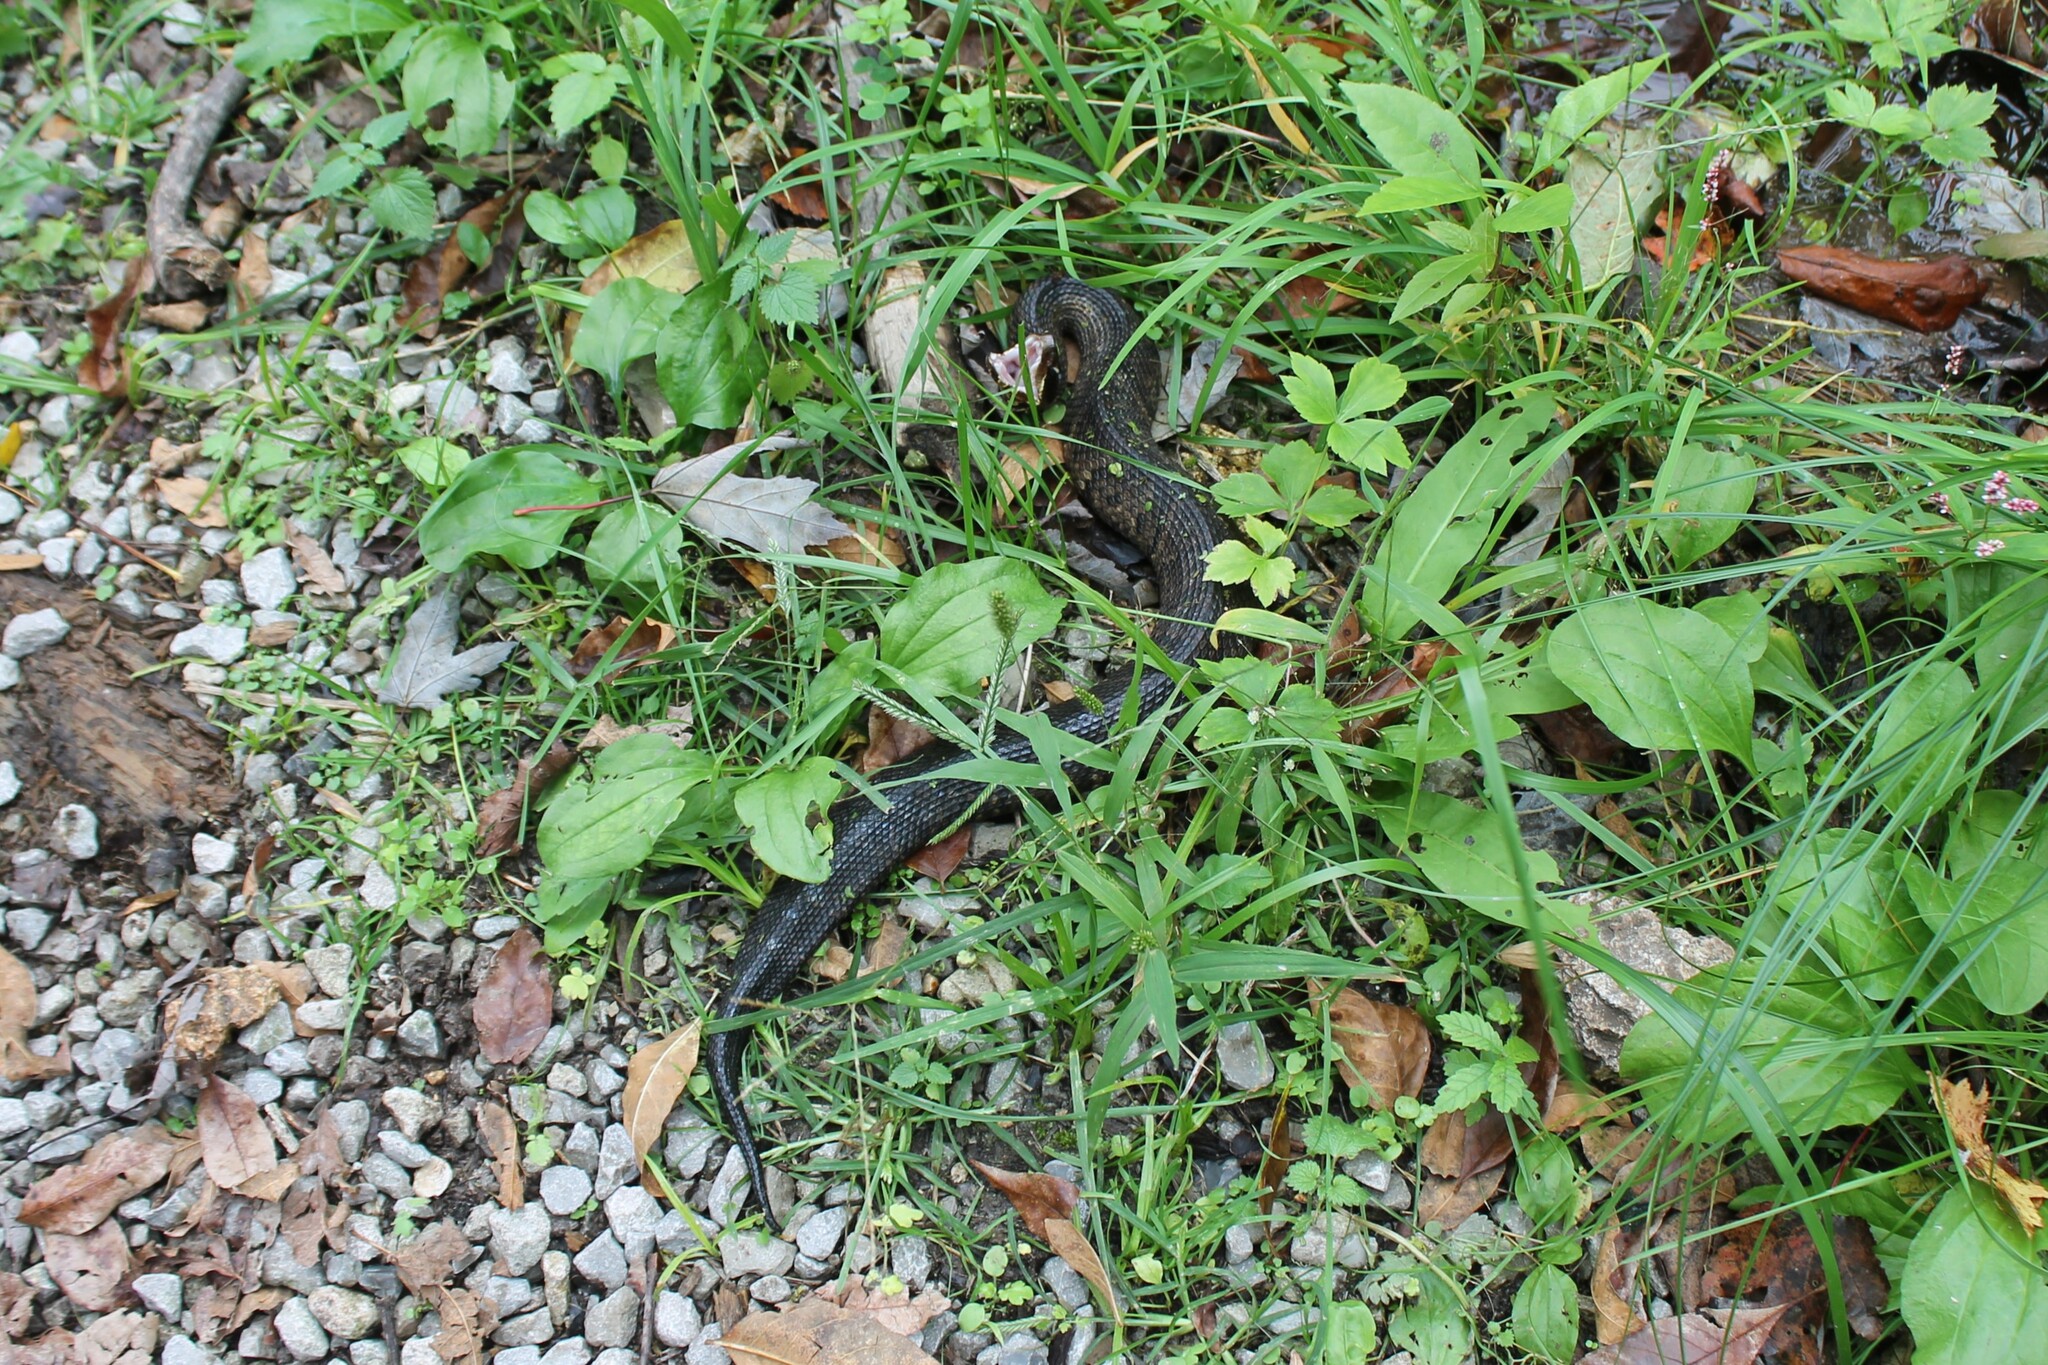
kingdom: Animalia
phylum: Chordata
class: Squamata
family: Viperidae
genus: Agkistrodon
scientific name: Agkistrodon piscivorus
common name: Cottonmouth
